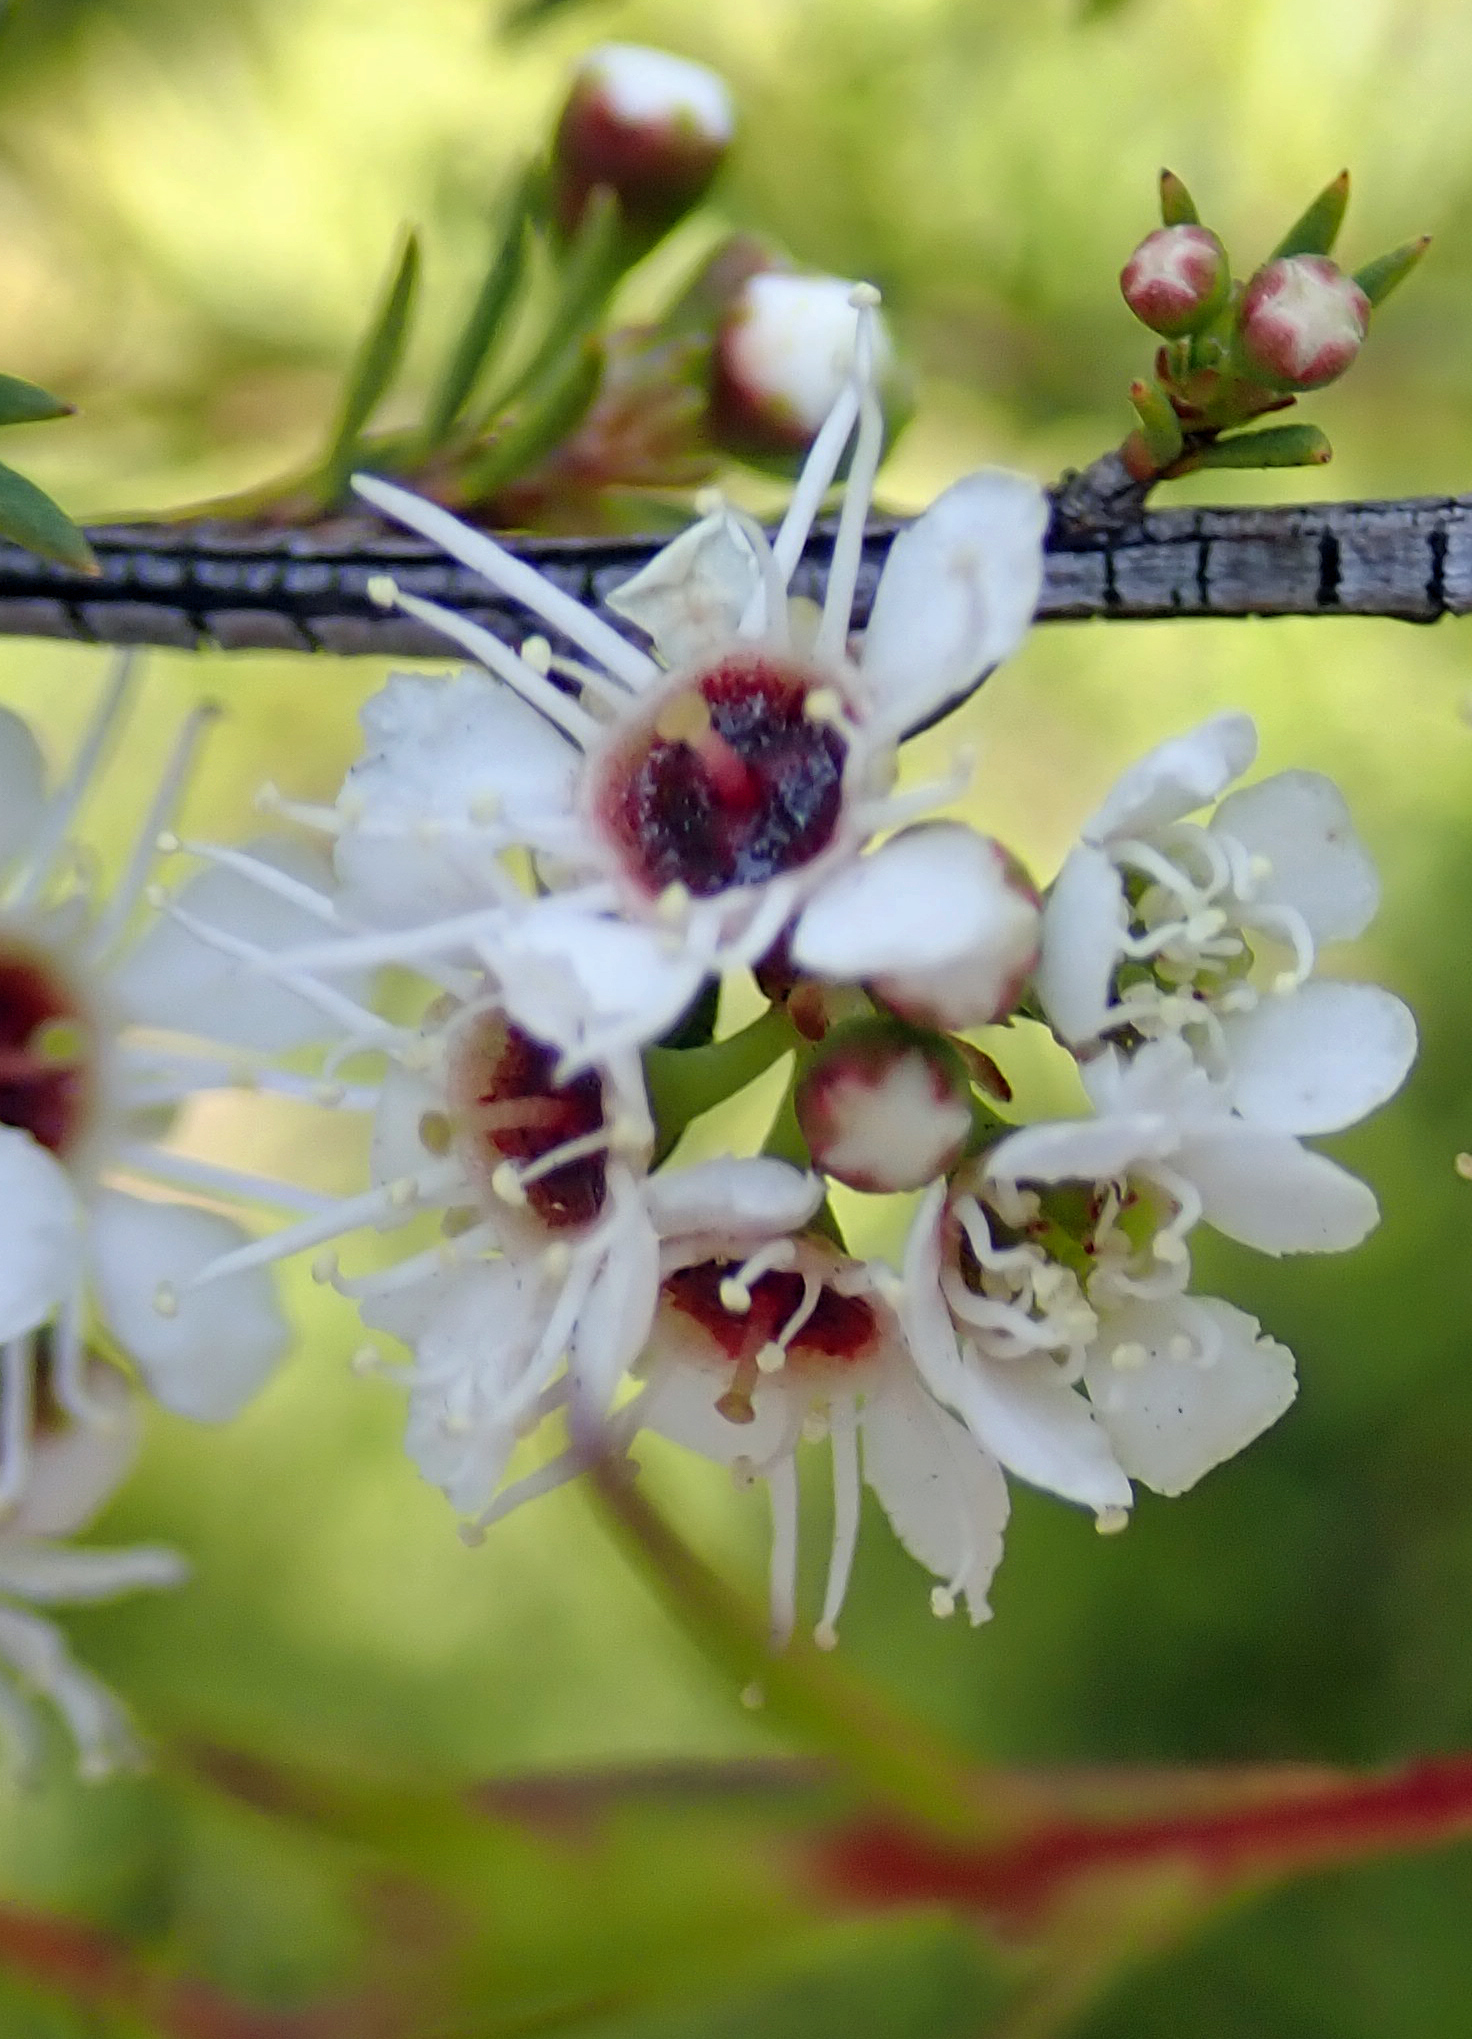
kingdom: Plantae
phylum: Tracheophyta
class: Magnoliopsida
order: Myrtales
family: Myrtaceae
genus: Kunzea
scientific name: Kunzea ericoides
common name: Burgan
